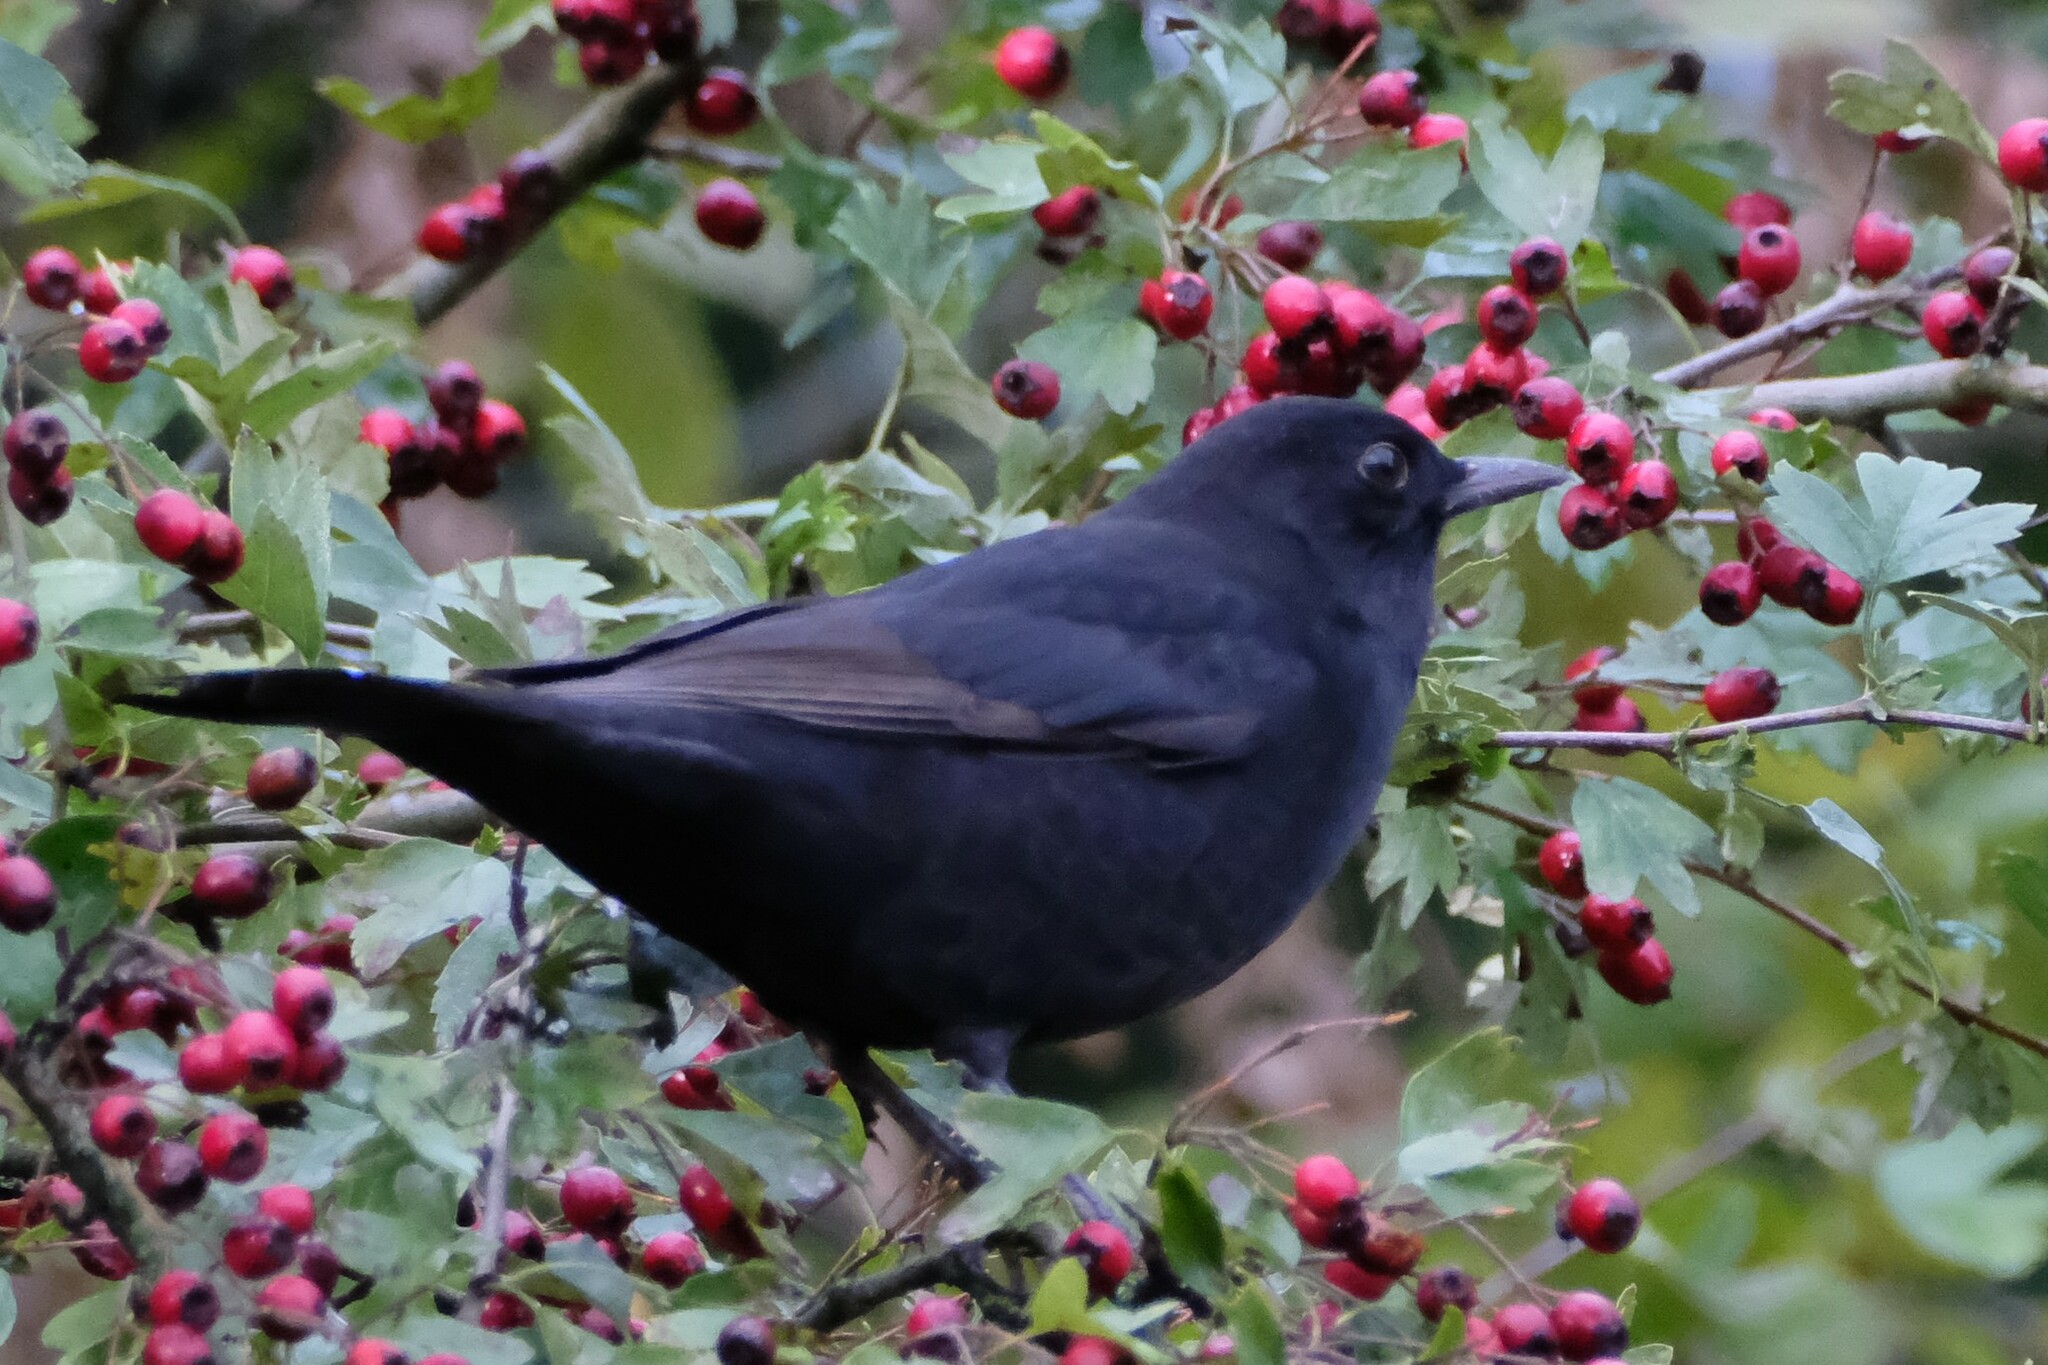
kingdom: Animalia
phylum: Chordata
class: Aves
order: Passeriformes
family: Turdidae
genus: Turdus
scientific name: Turdus merula
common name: Common blackbird
